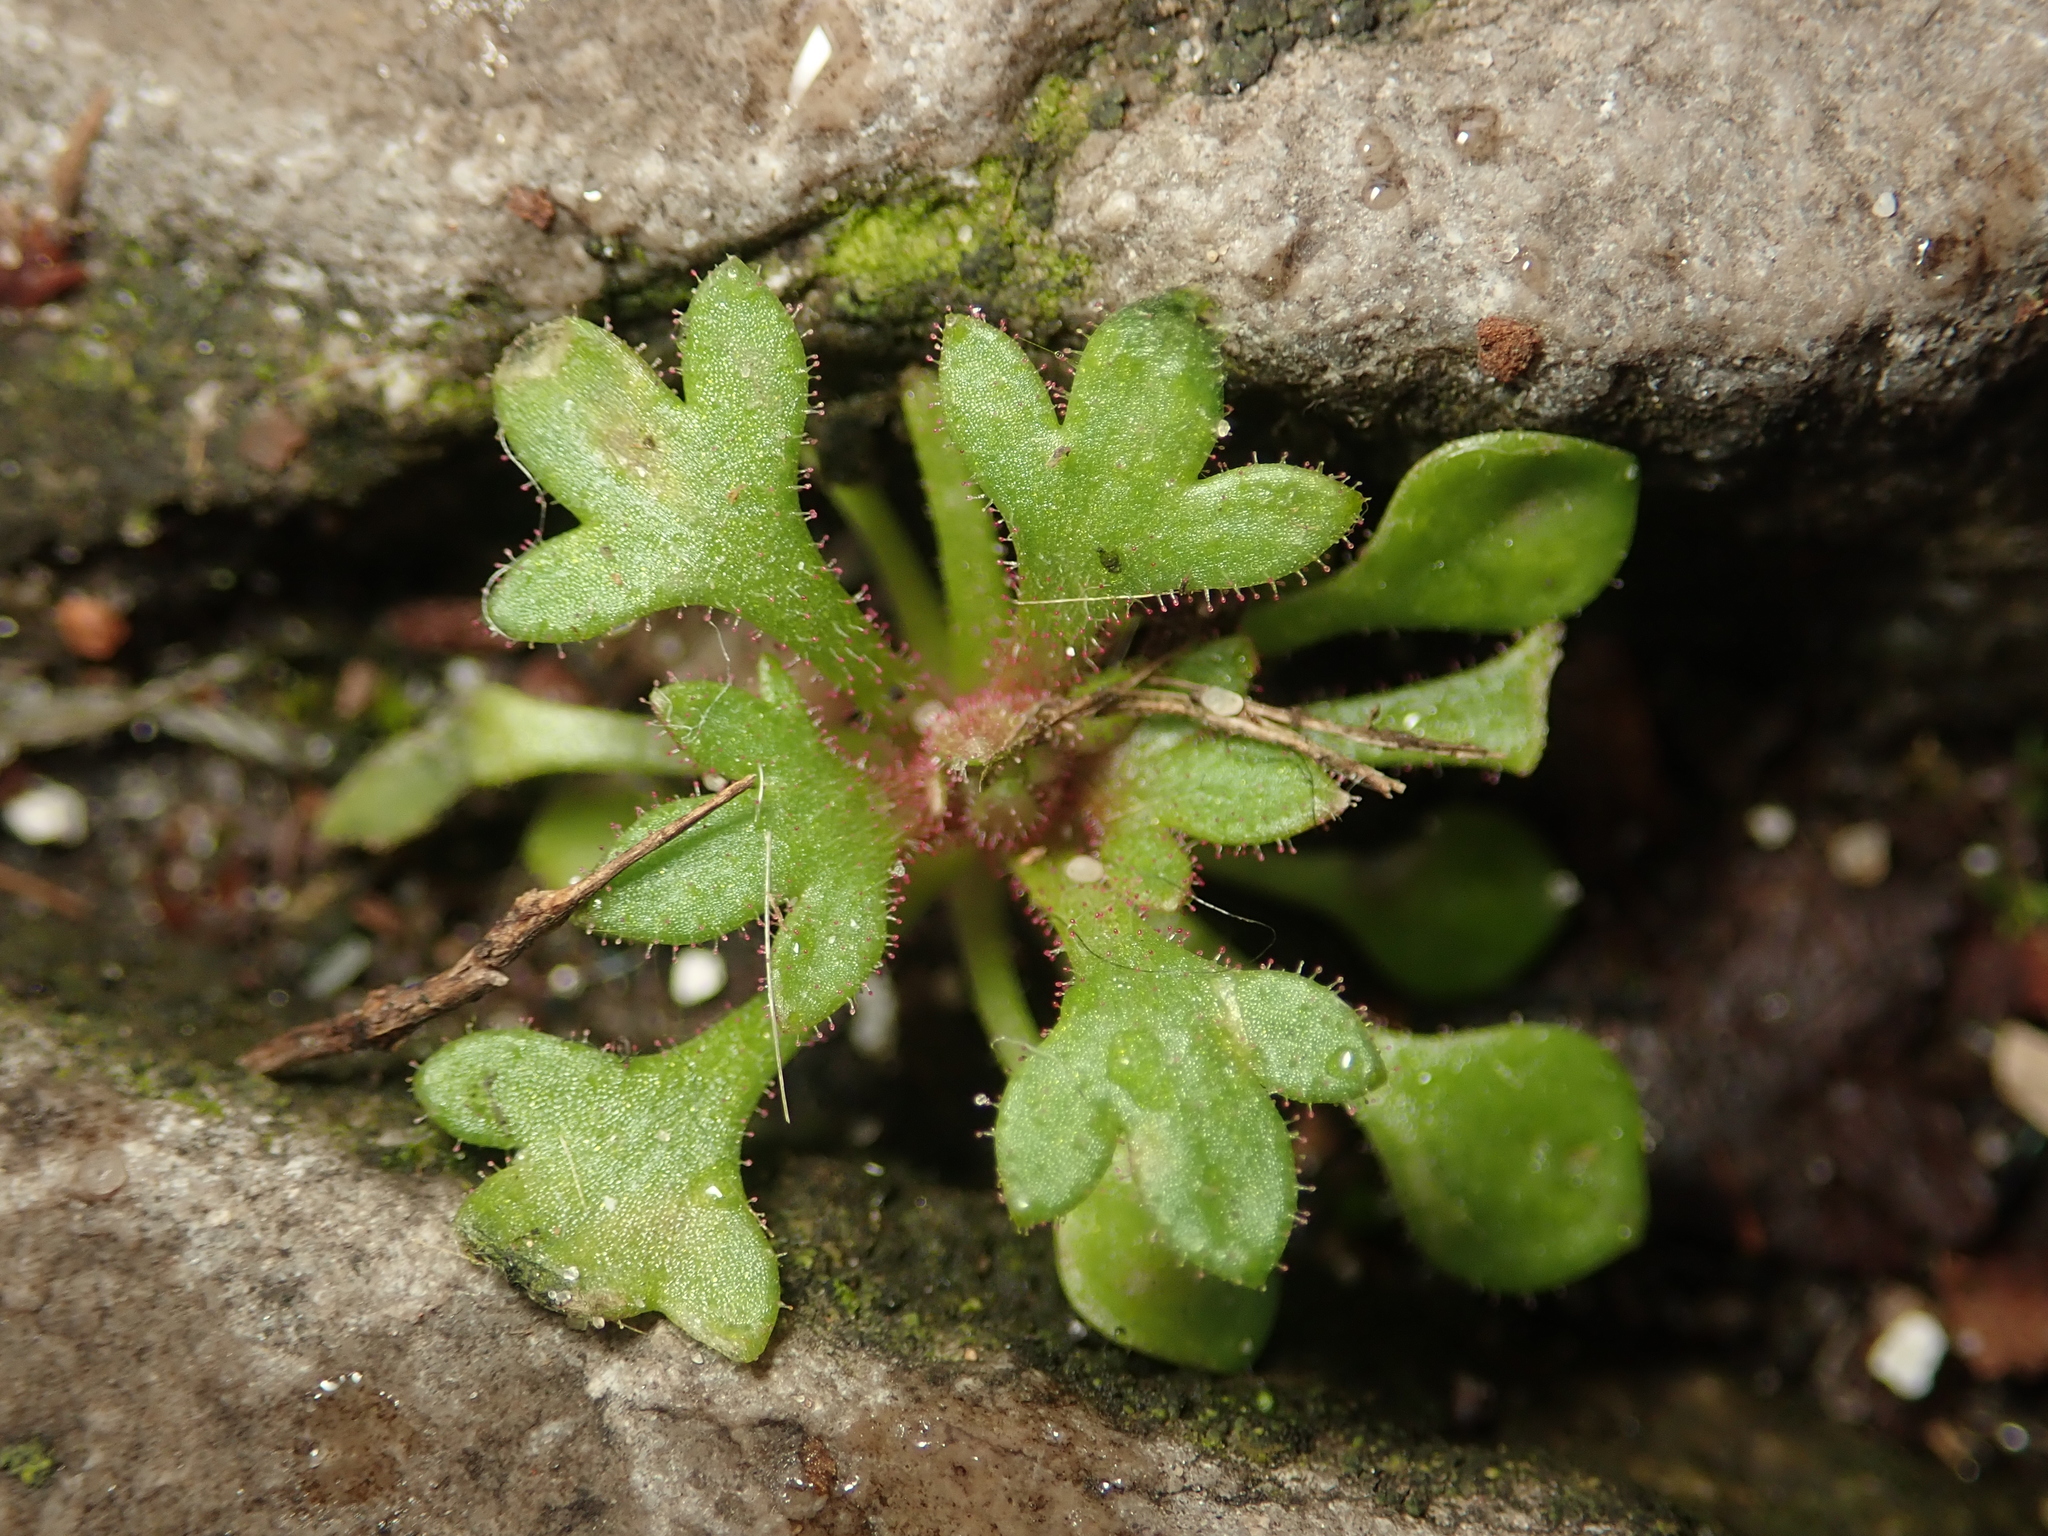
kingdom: Plantae
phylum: Tracheophyta
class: Magnoliopsida
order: Saxifragales
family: Saxifragaceae
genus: Saxifraga
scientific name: Saxifraga tridactylites
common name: Rue-leaved saxifrage
